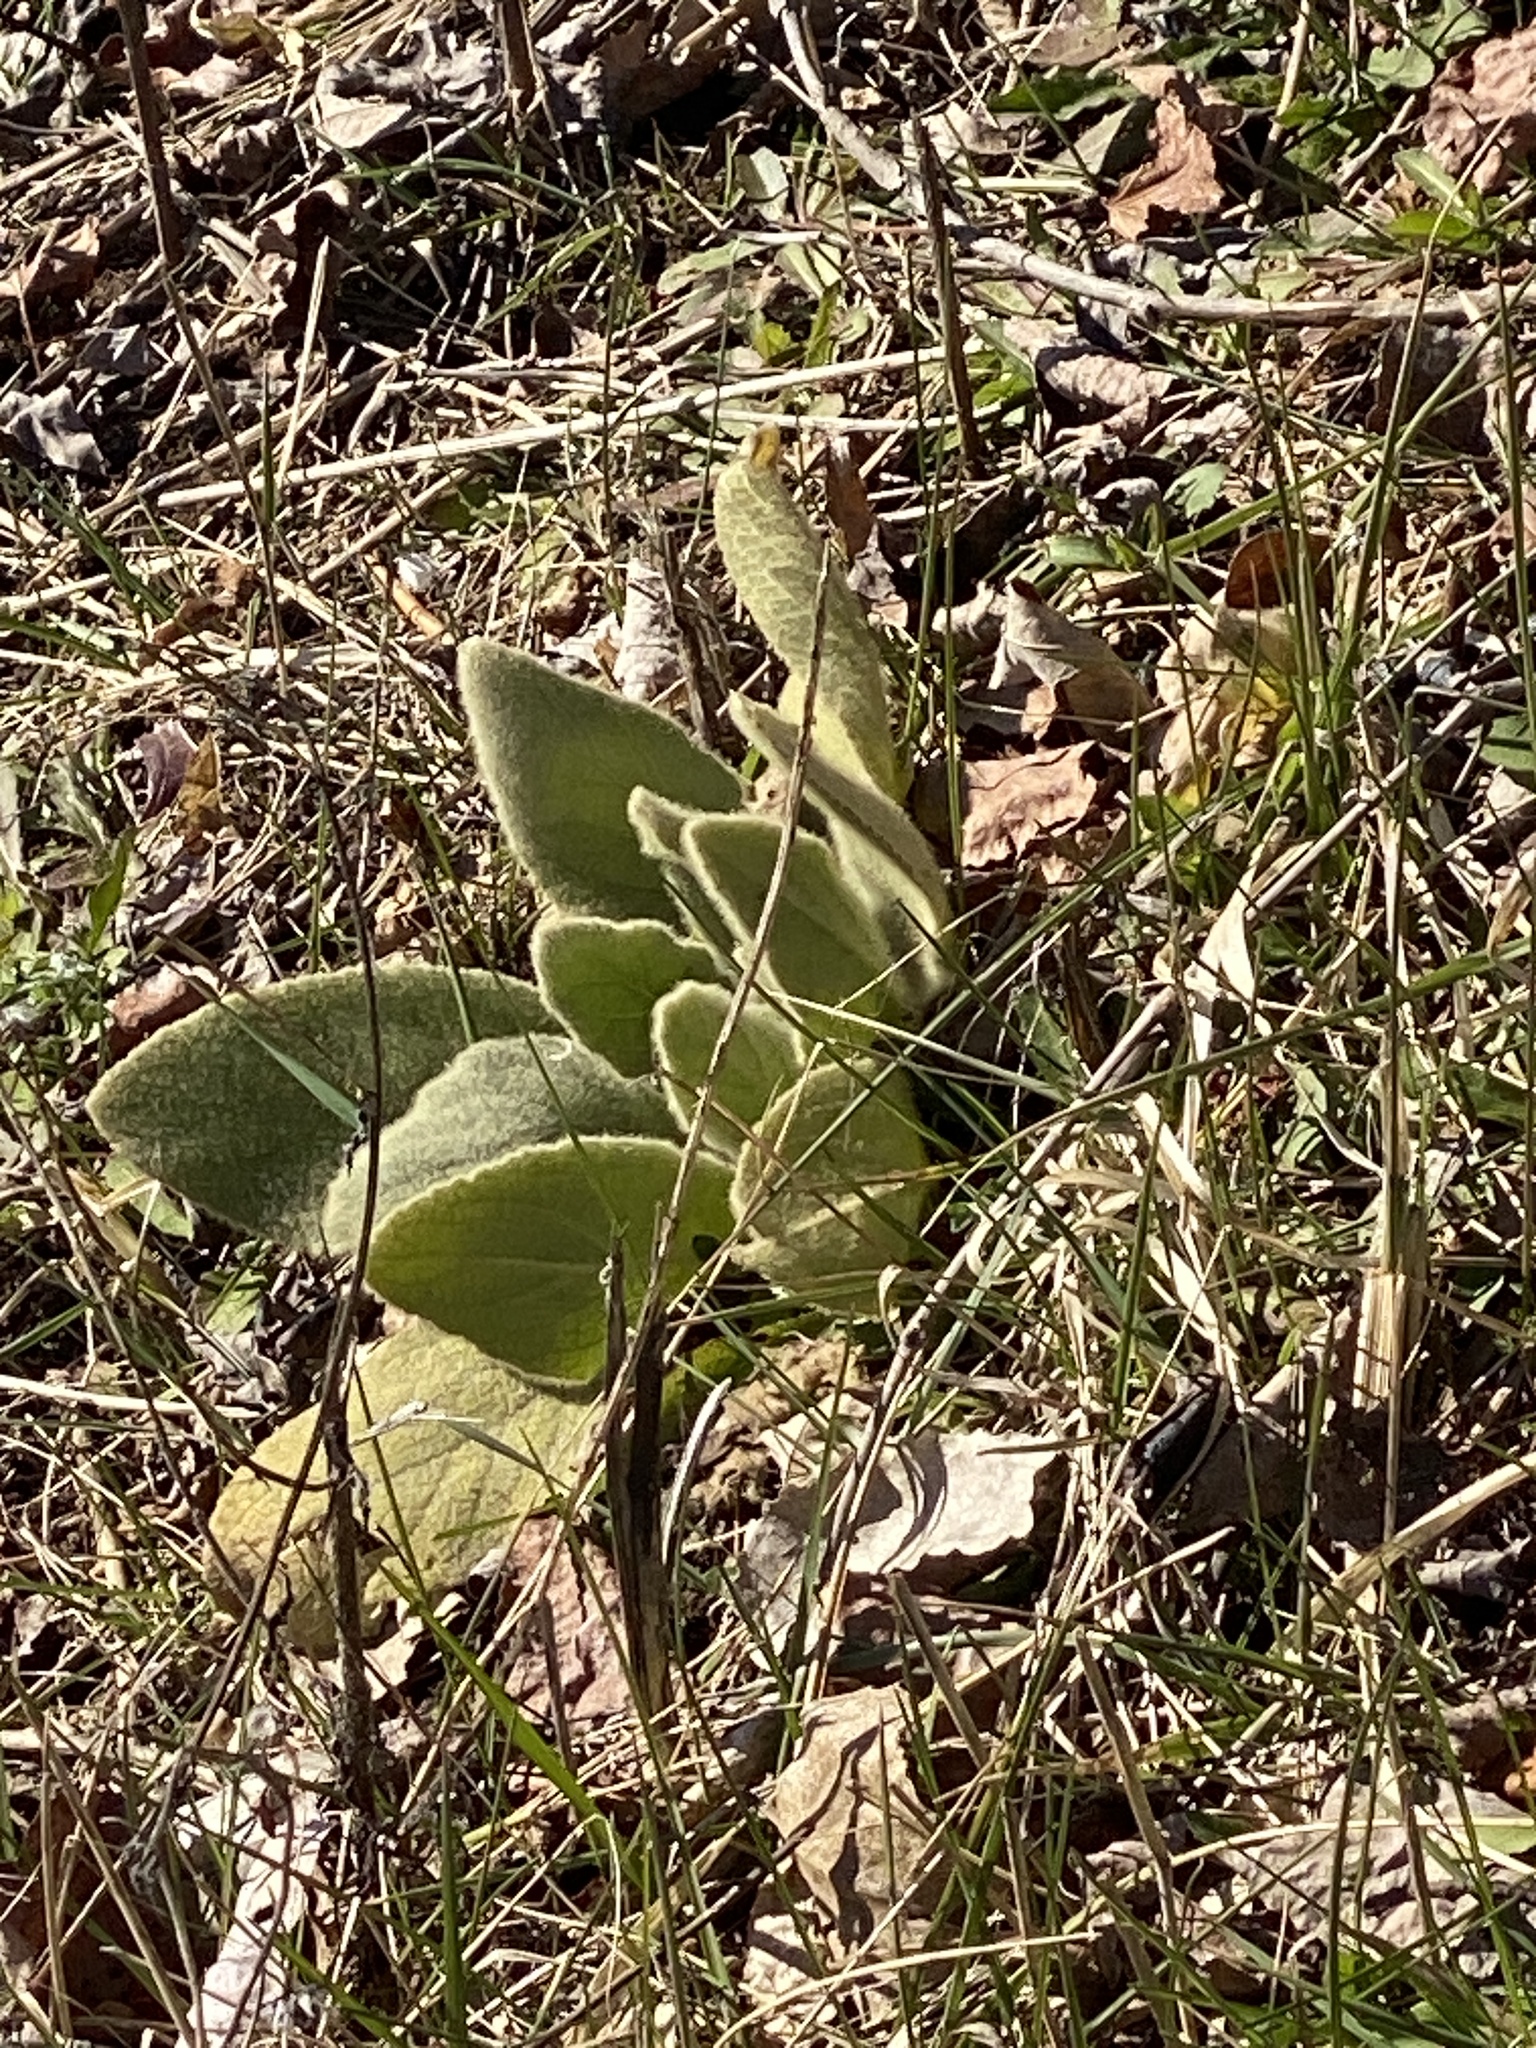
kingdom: Plantae
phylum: Tracheophyta
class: Magnoliopsida
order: Lamiales
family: Scrophulariaceae
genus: Verbascum
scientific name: Verbascum thapsus
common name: Common mullein
